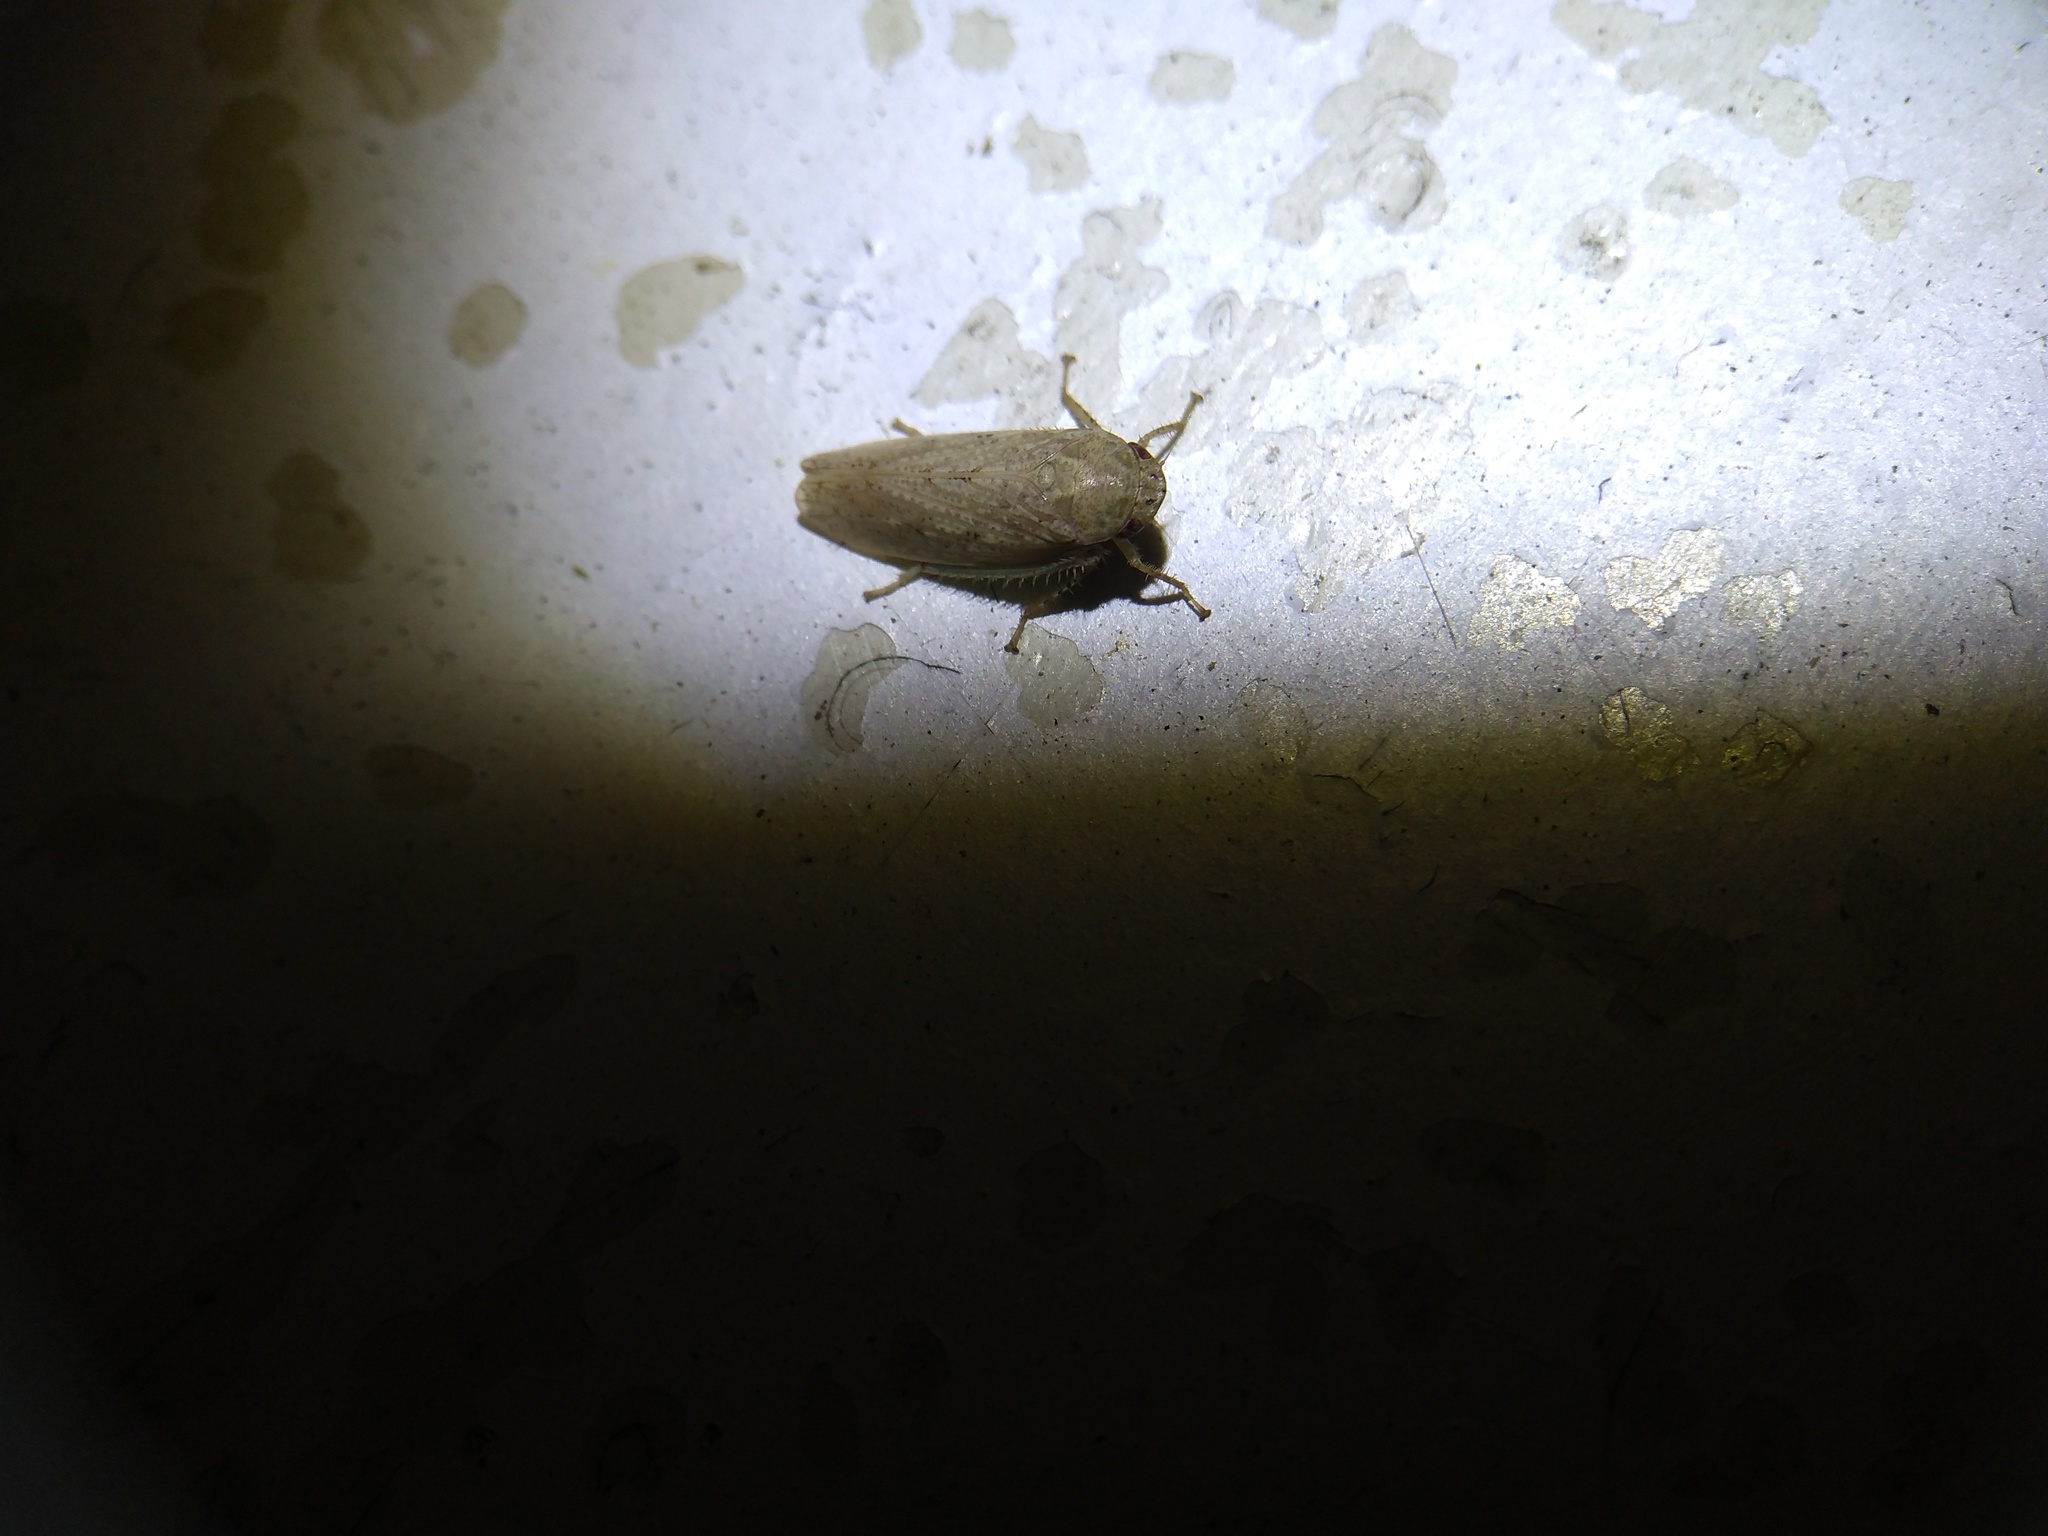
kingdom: Animalia
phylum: Arthropoda
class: Insecta
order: Hemiptera
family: Cicadellidae
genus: Curtara
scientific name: Curtara insularis
